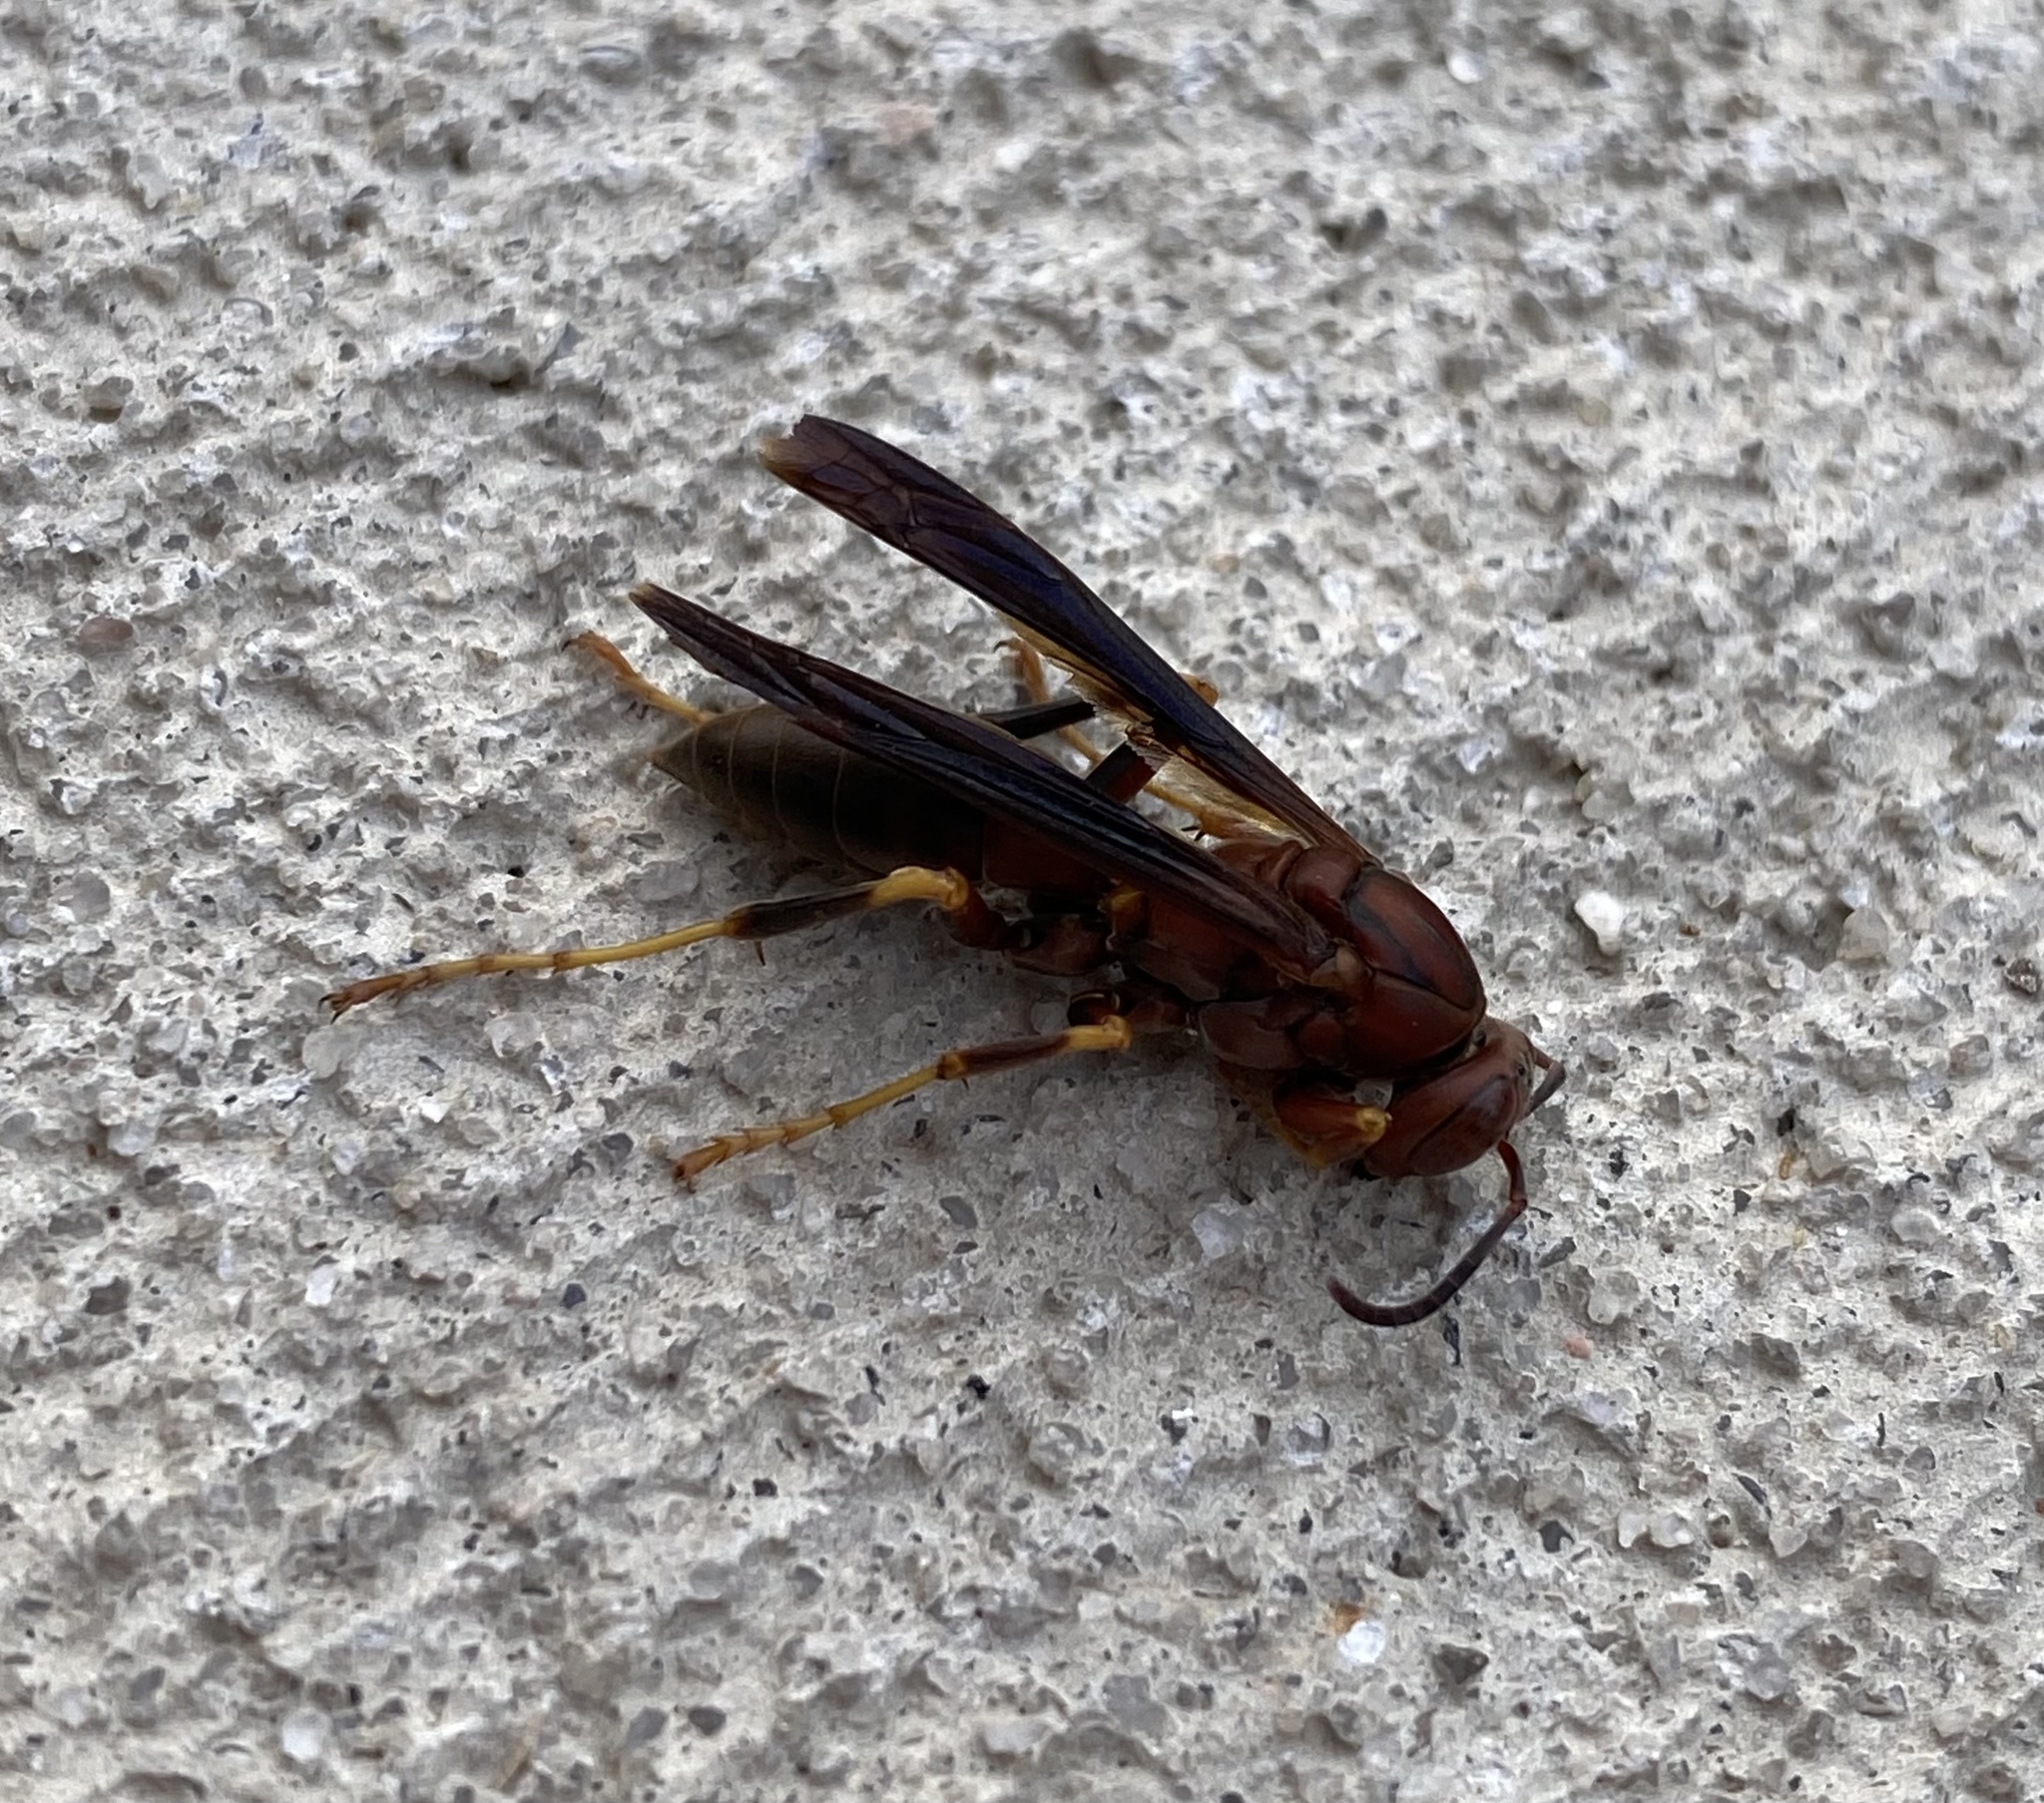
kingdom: Animalia
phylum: Arthropoda
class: Insecta
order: Hymenoptera
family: Eumenidae
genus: Polistes
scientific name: Polistes metricus
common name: Metric paper wasp
